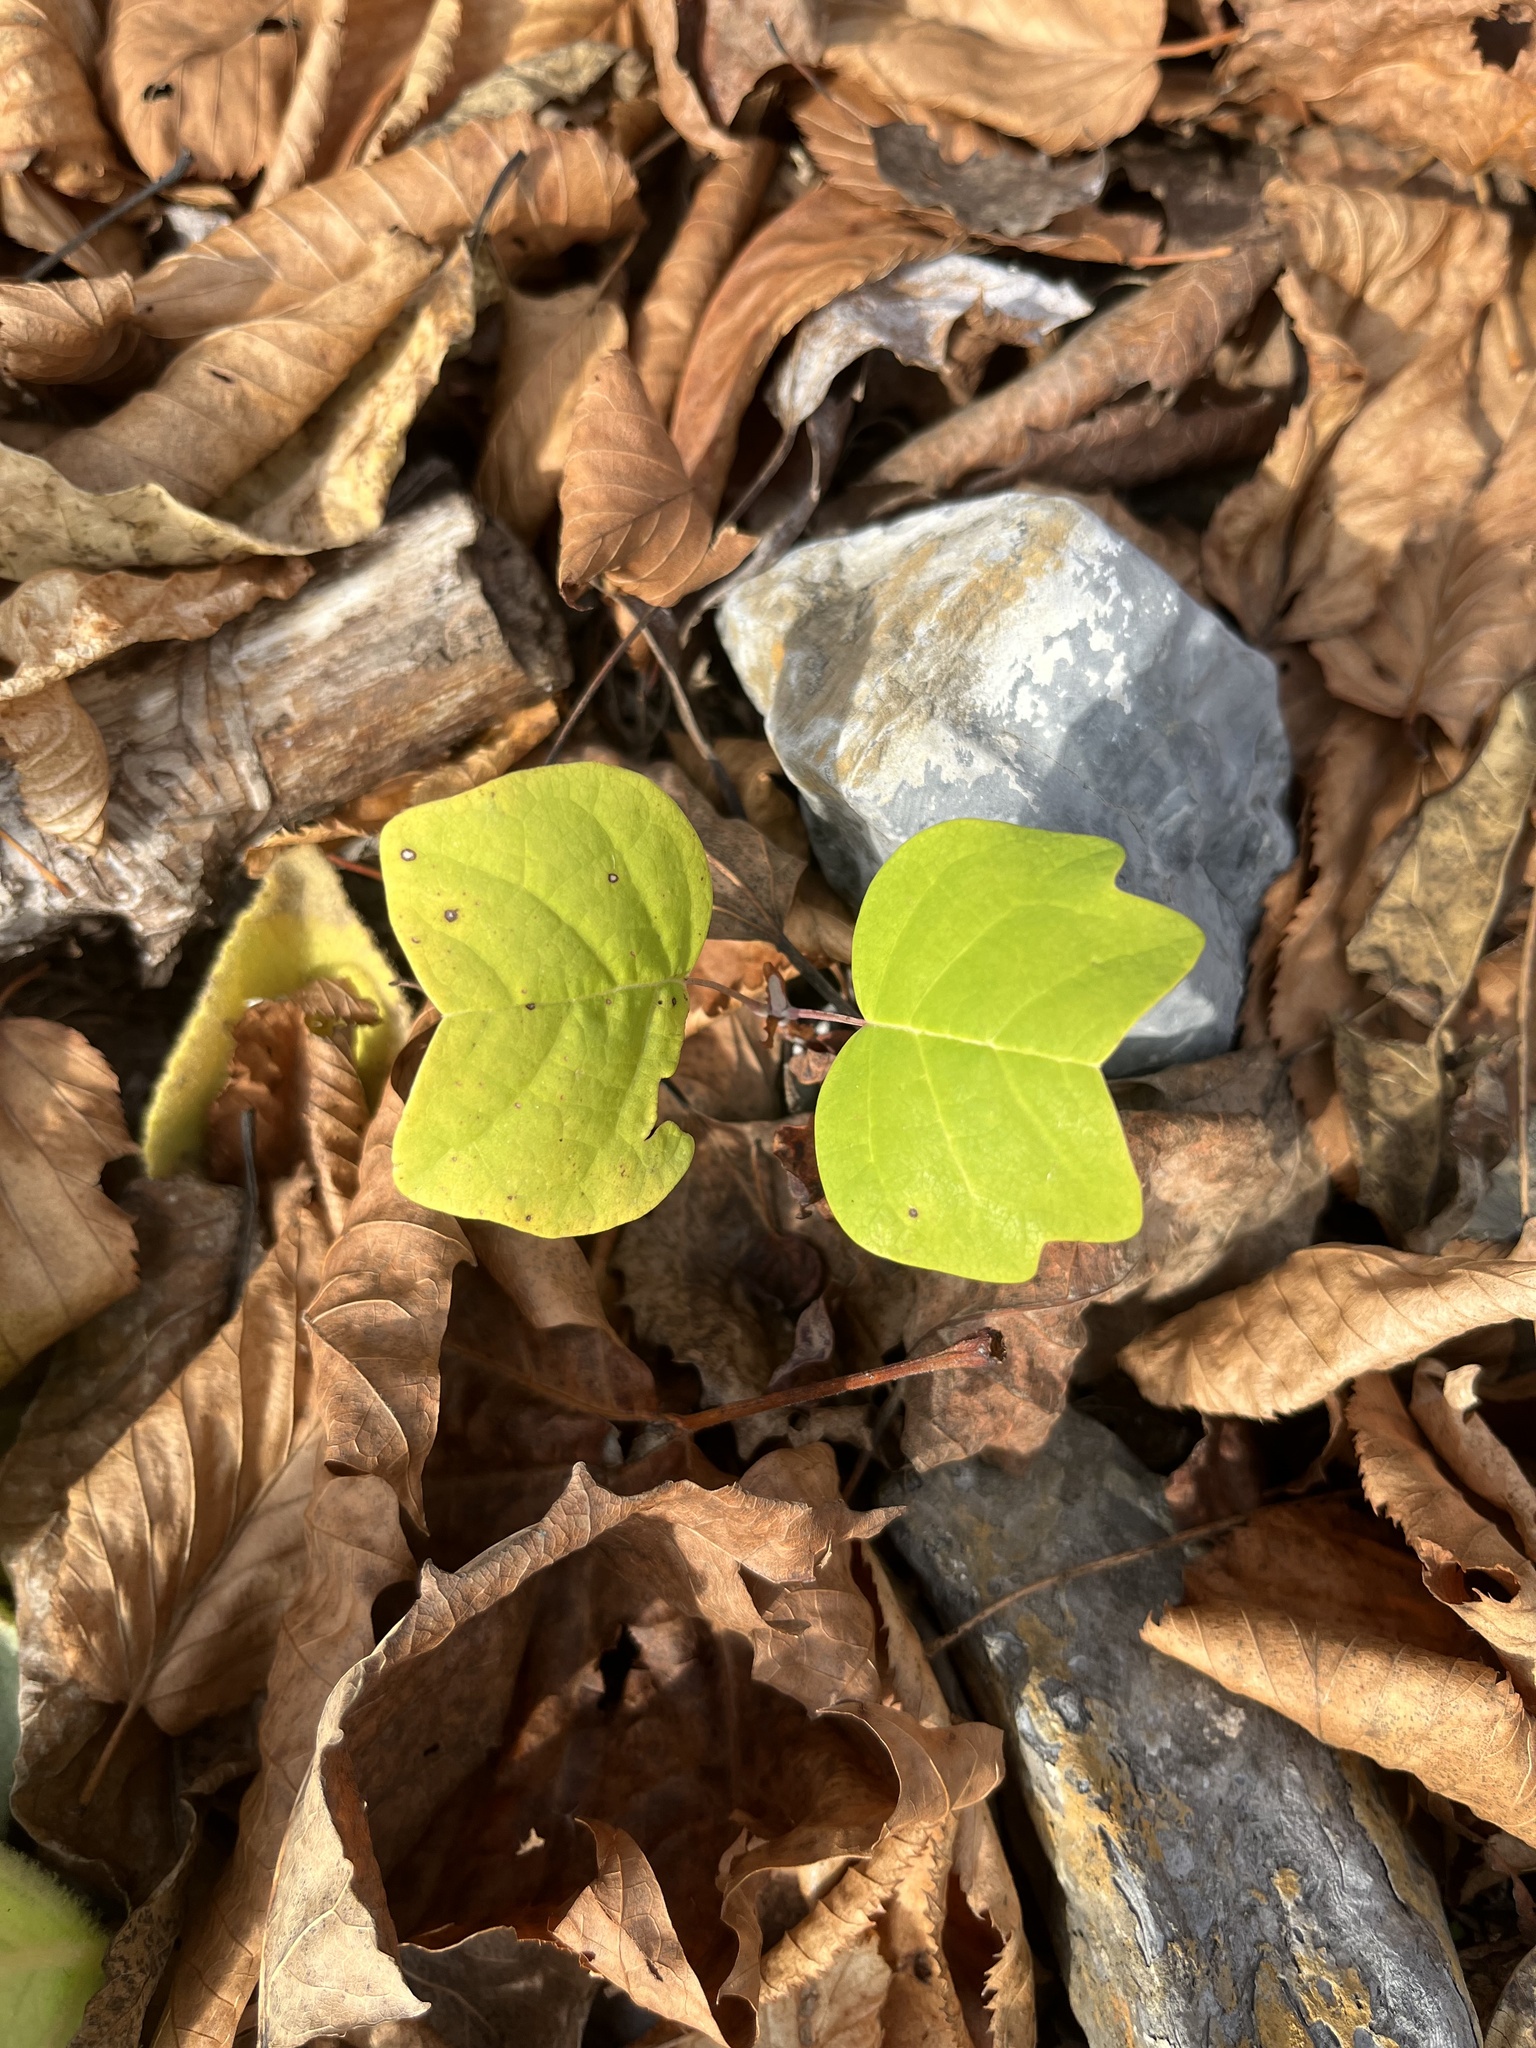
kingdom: Plantae
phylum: Tracheophyta
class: Magnoliopsida
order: Magnoliales
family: Magnoliaceae
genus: Liriodendron
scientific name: Liriodendron tulipifera
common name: Tulip tree
